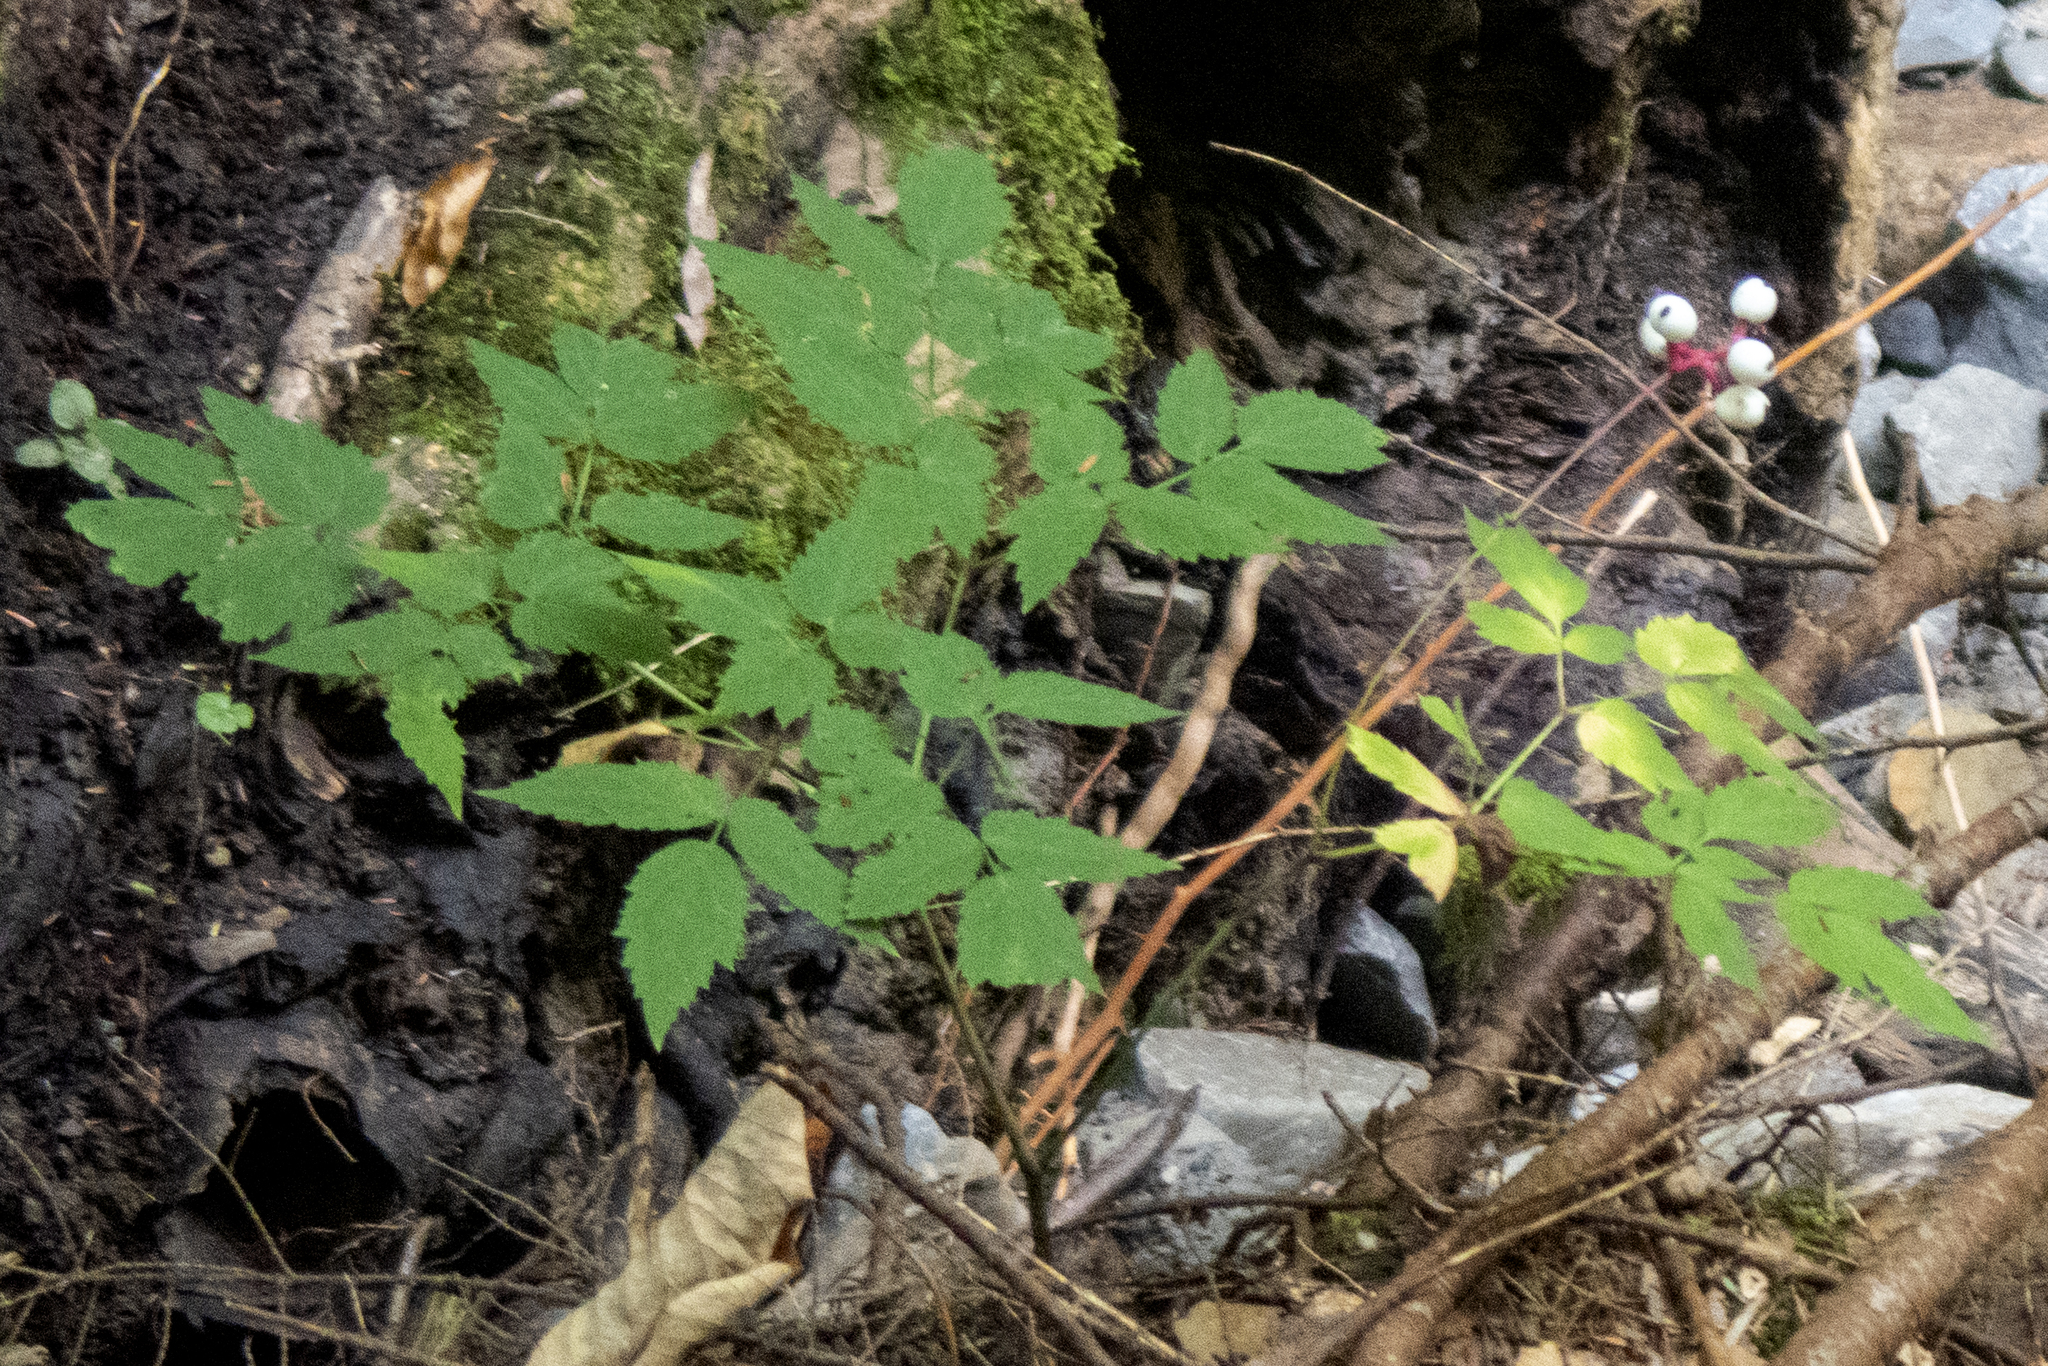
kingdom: Plantae
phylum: Tracheophyta
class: Magnoliopsida
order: Ranunculales
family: Ranunculaceae
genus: Actaea
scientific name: Actaea pachypoda
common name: Doll's-eyes
